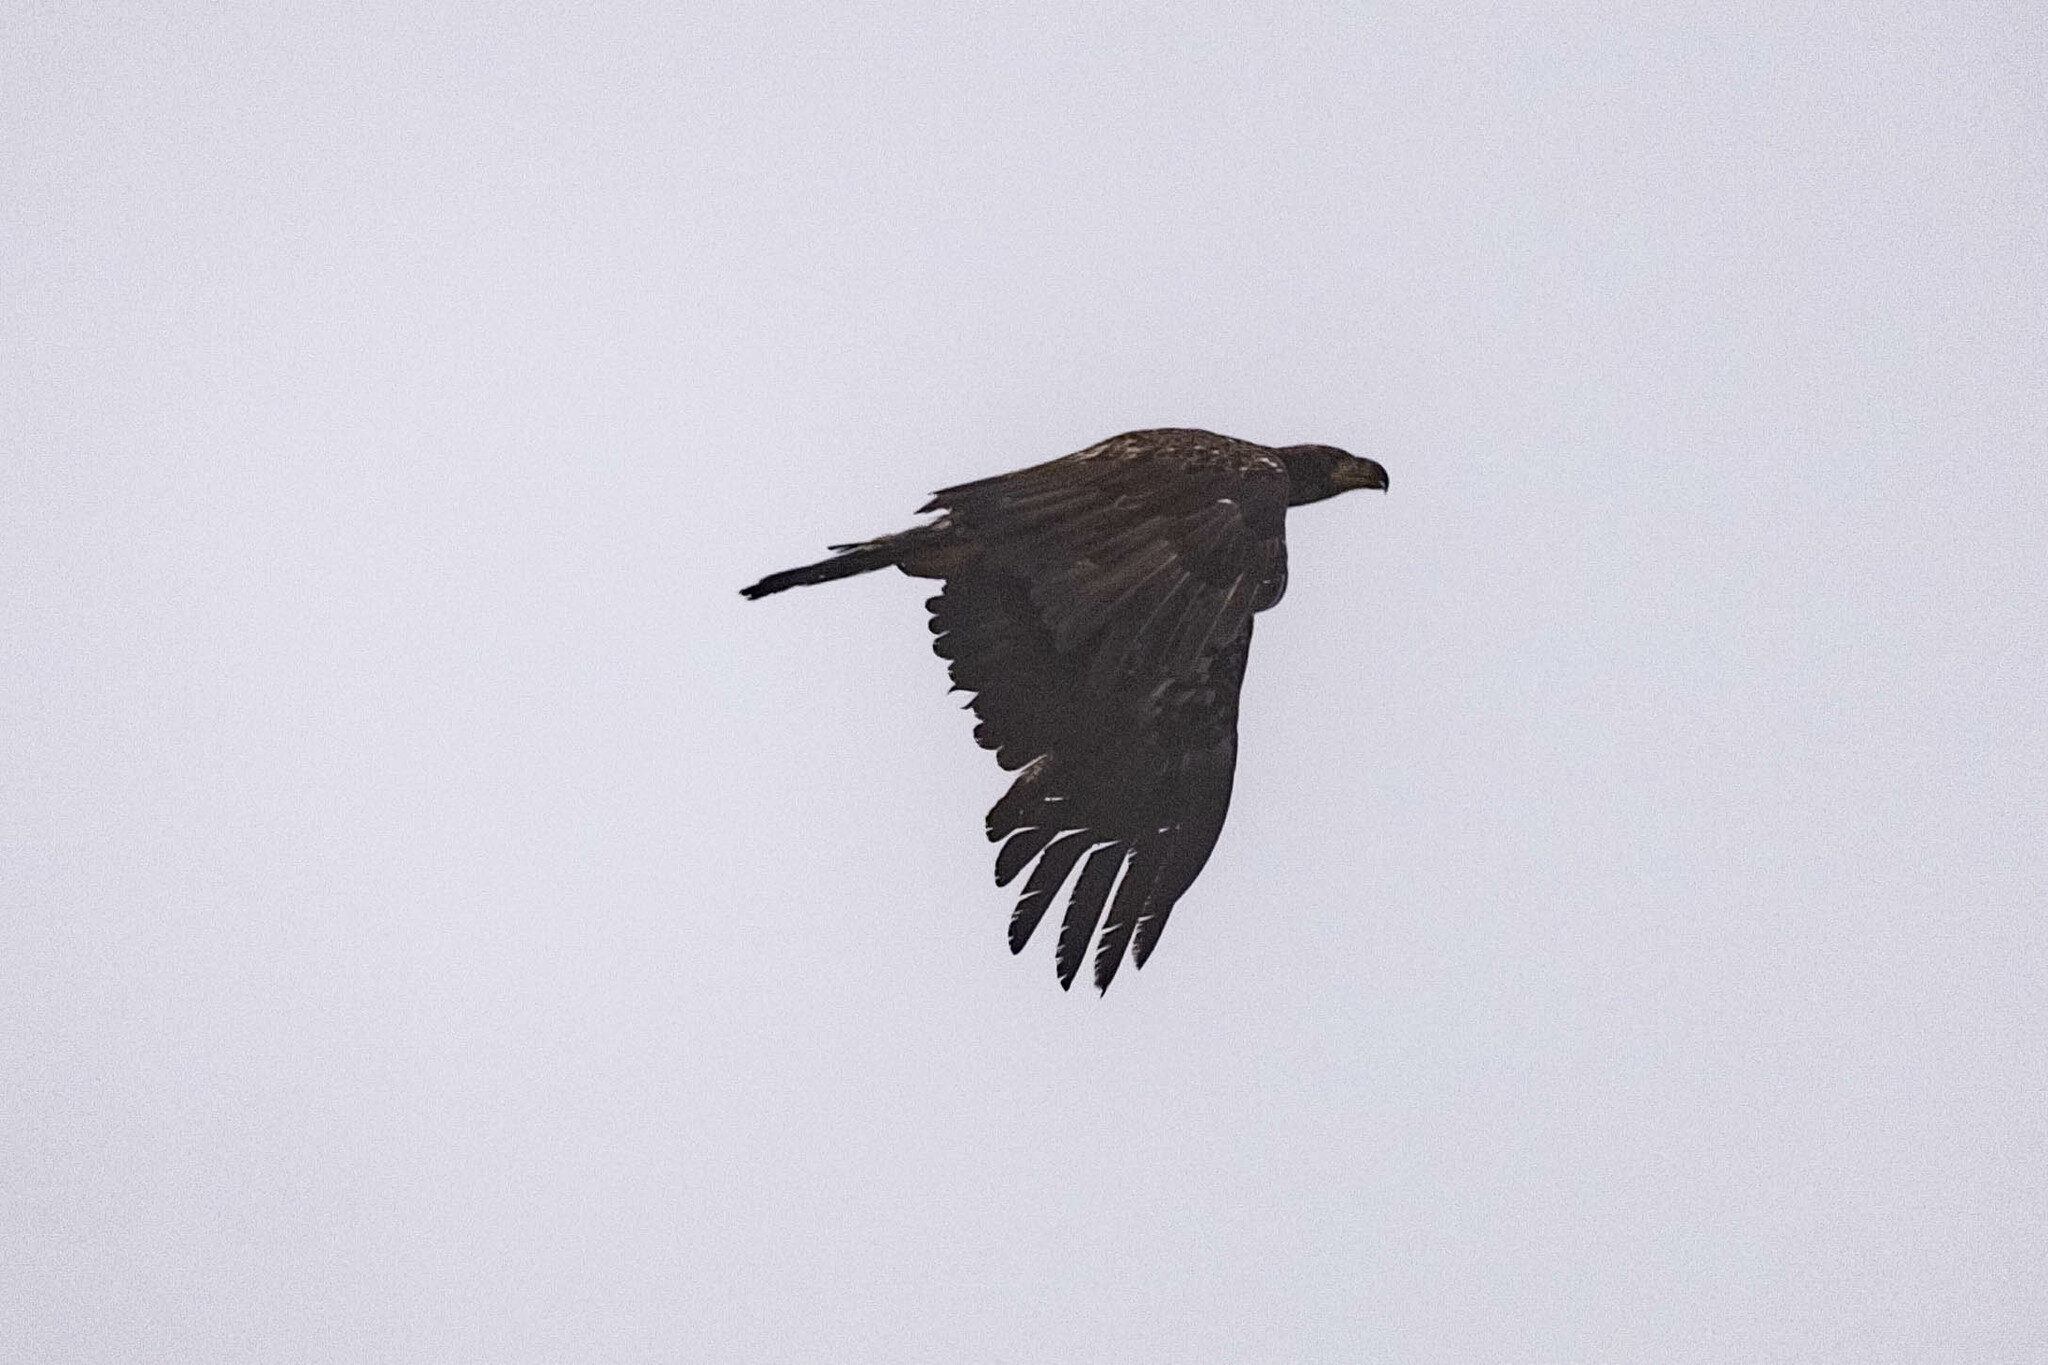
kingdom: Animalia
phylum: Chordata
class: Aves
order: Accipitriformes
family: Accipitridae
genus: Haliaeetus
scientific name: Haliaeetus leucocephalus
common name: Bald eagle
